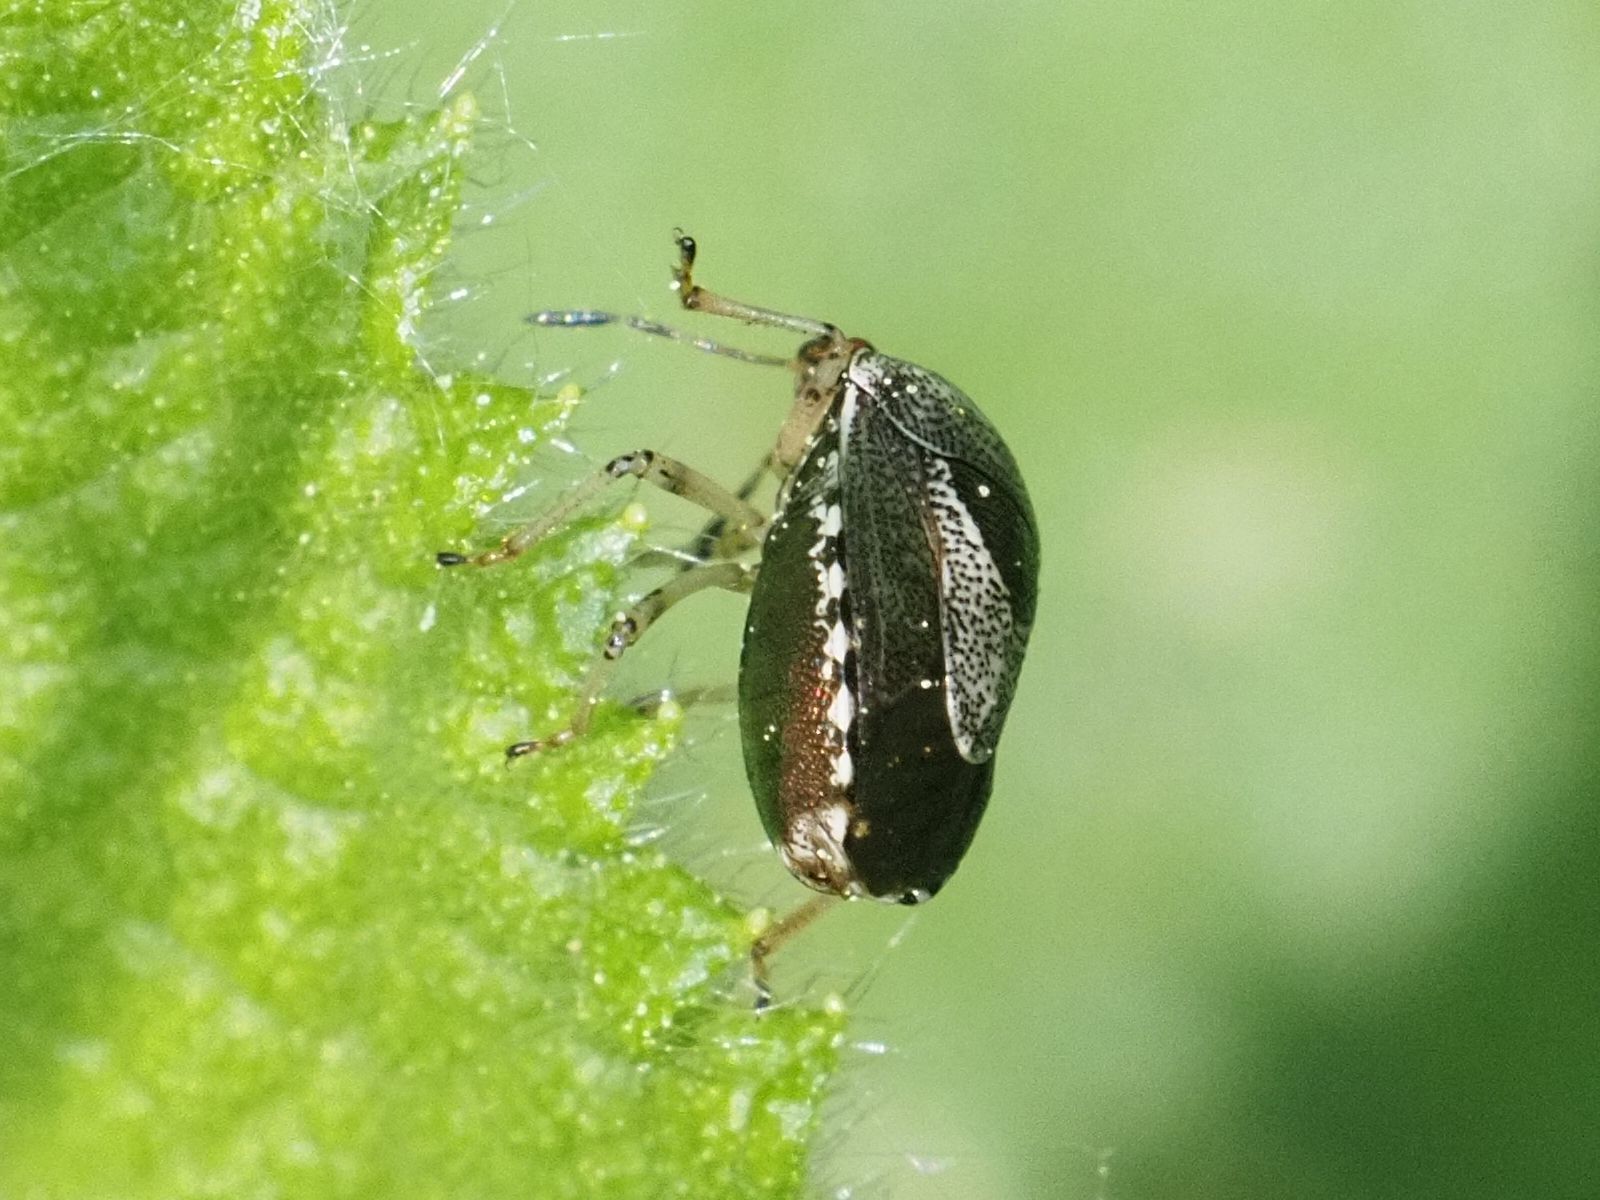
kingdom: Animalia
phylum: Arthropoda
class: Insecta
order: Hemiptera
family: Pentatomidae
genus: Eysarcoris
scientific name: Eysarcoris venustissimus
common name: Woundwort shieldbug
